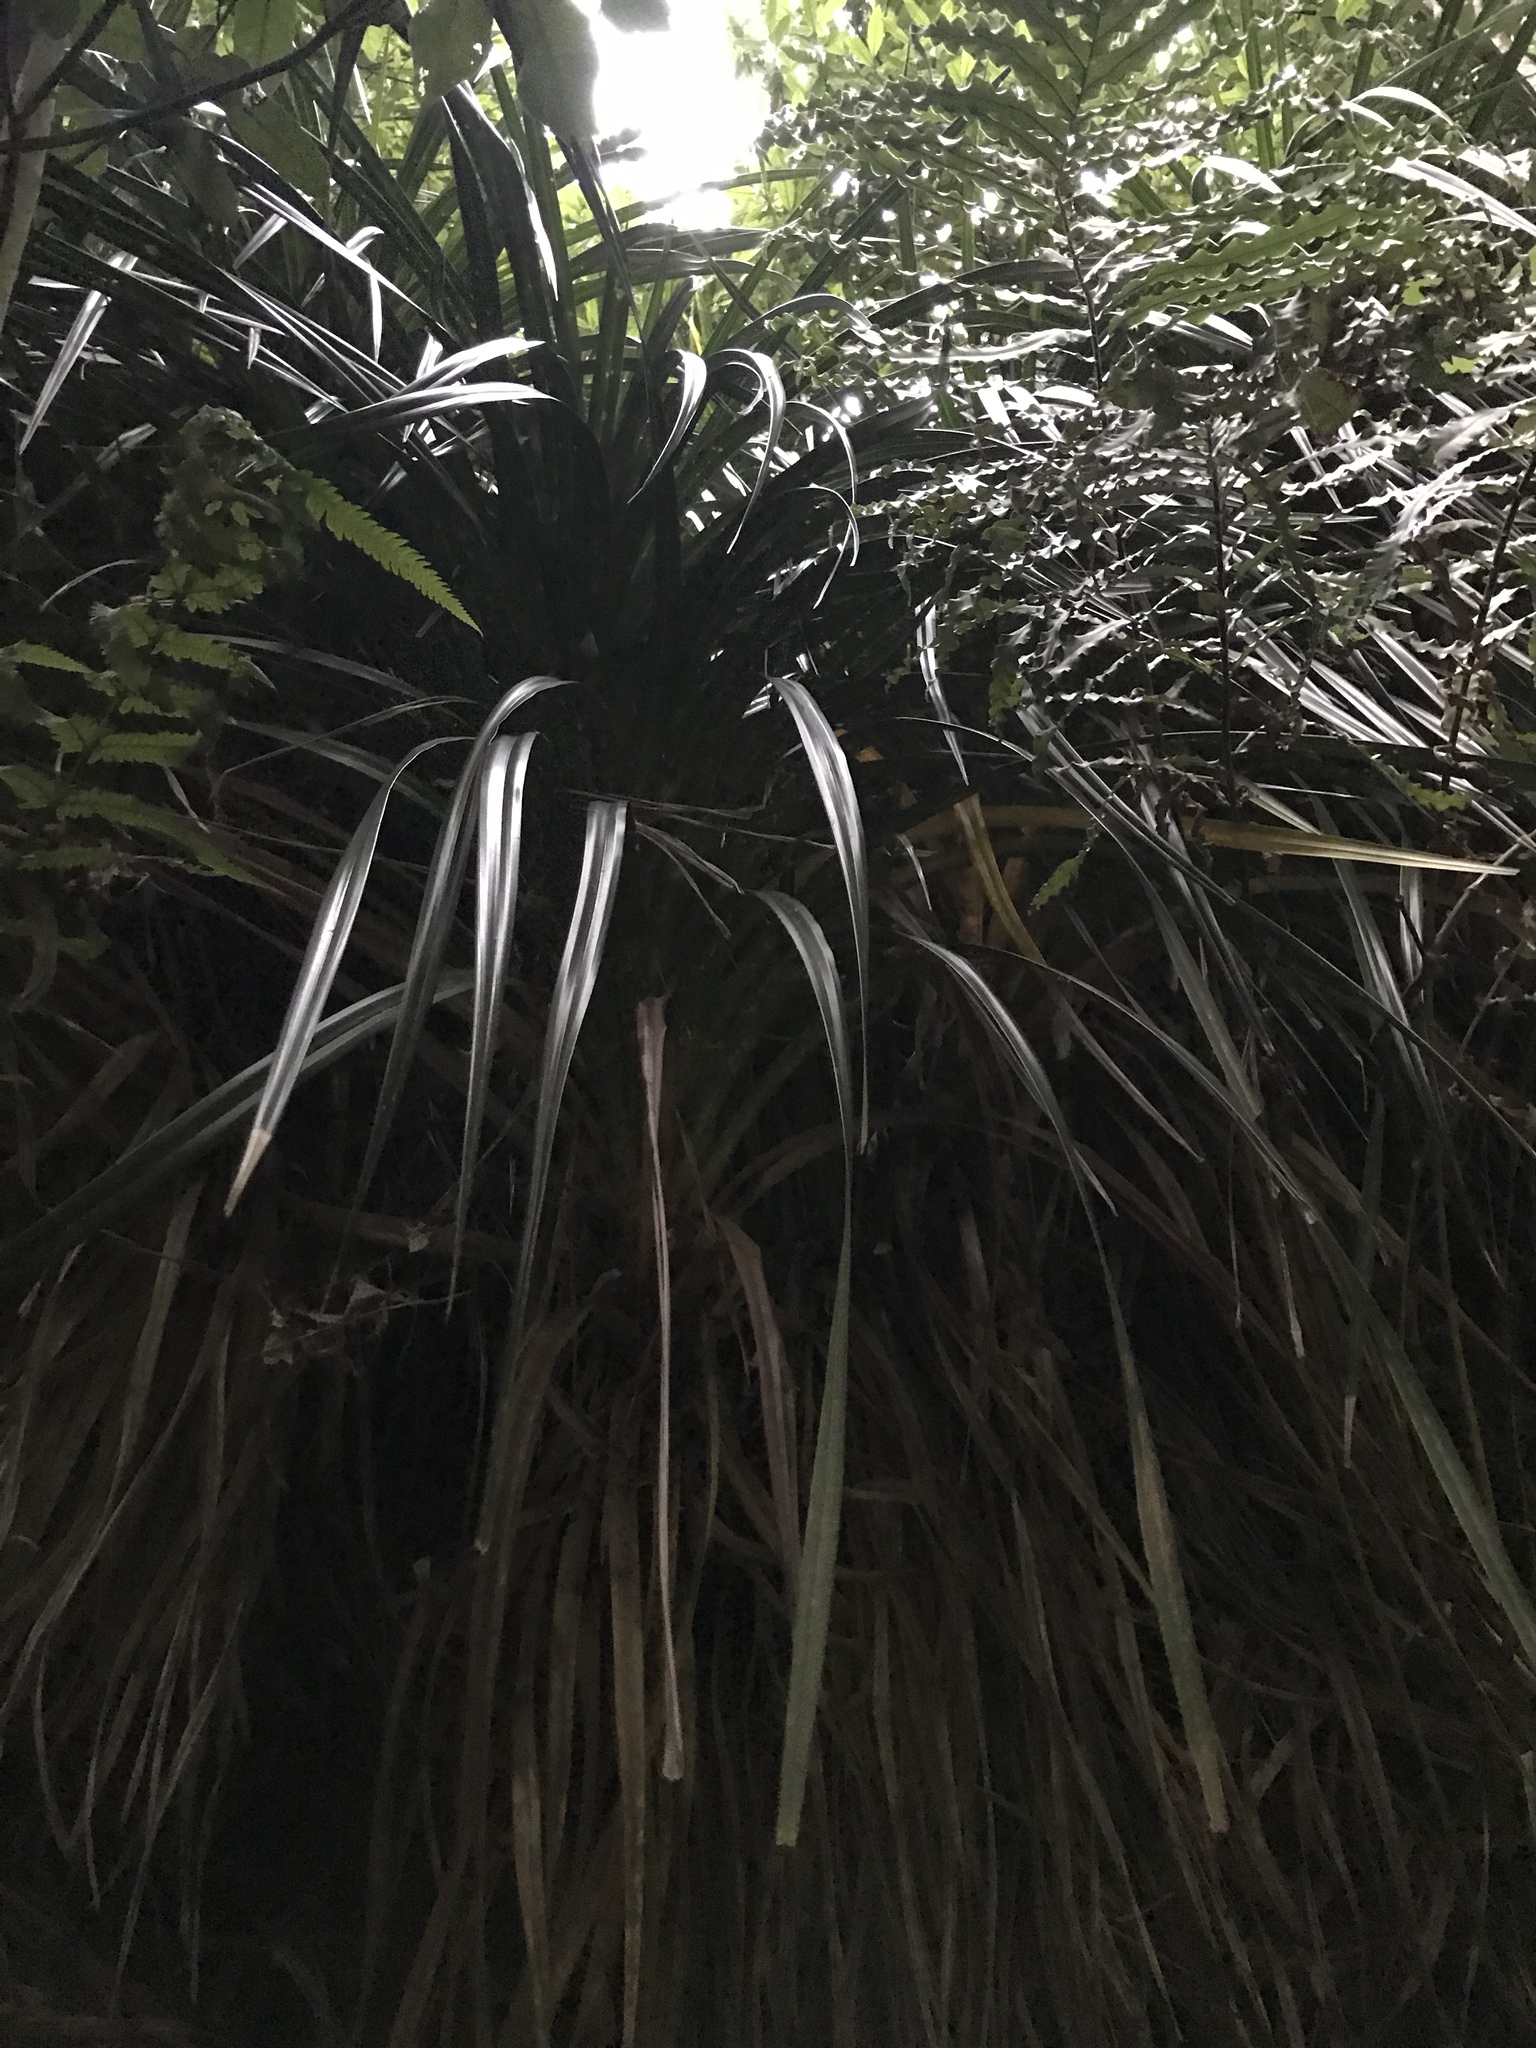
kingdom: Plantae
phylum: Tracheophyta
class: Liliopsida
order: Pandanales
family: Pandanaceae
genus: Freycinetia
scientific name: Freycinetia banksii
